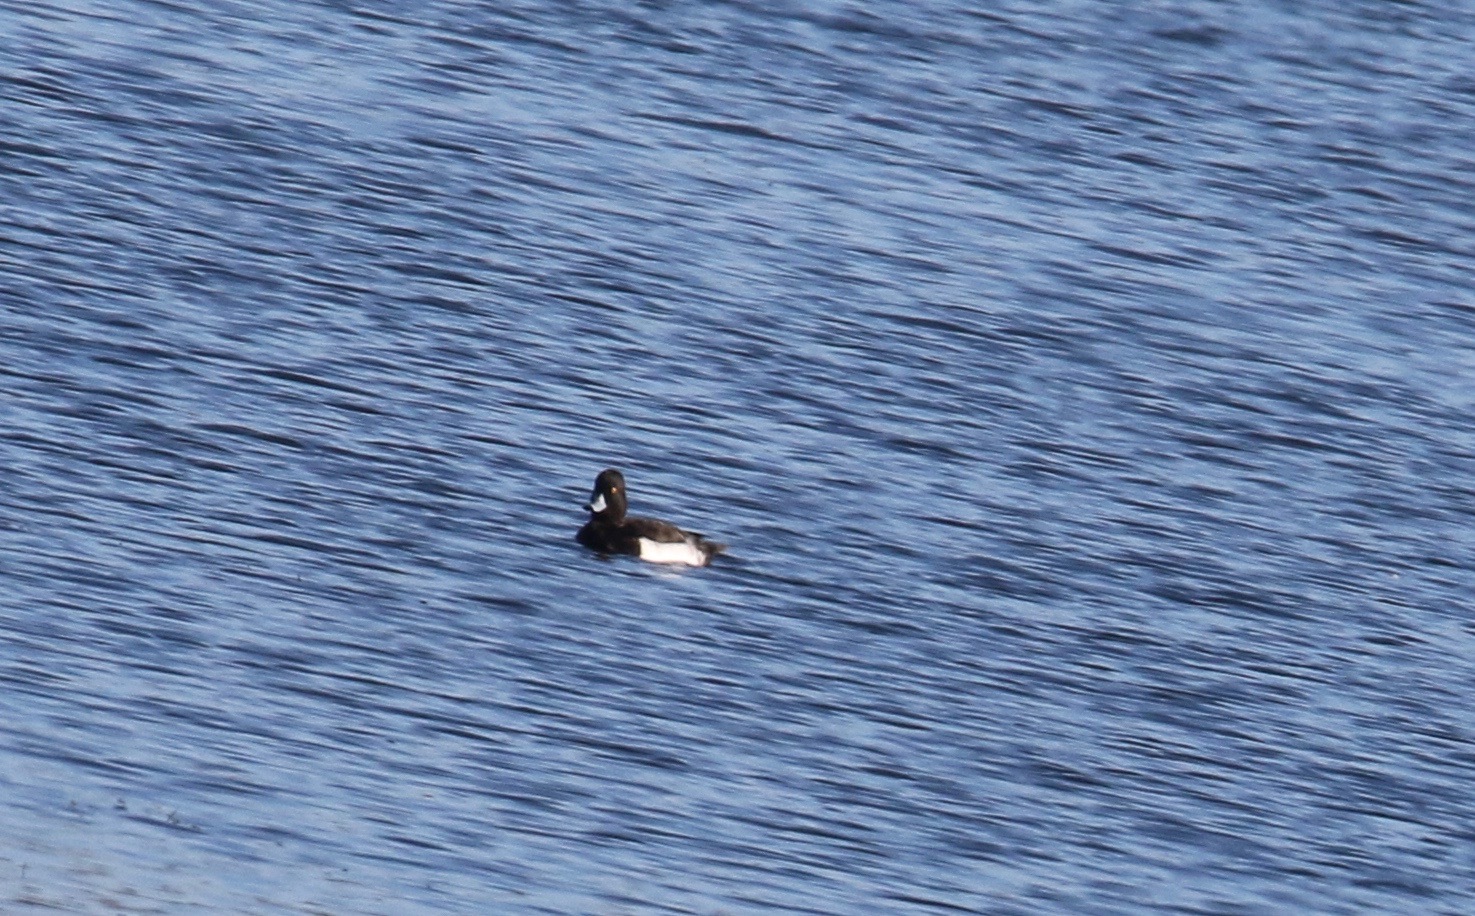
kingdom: Animalia
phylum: Chordata
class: Aves
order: Anseriformes
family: Anatidae
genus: Aythya
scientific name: Aythya fuligula
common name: Tufted duck
